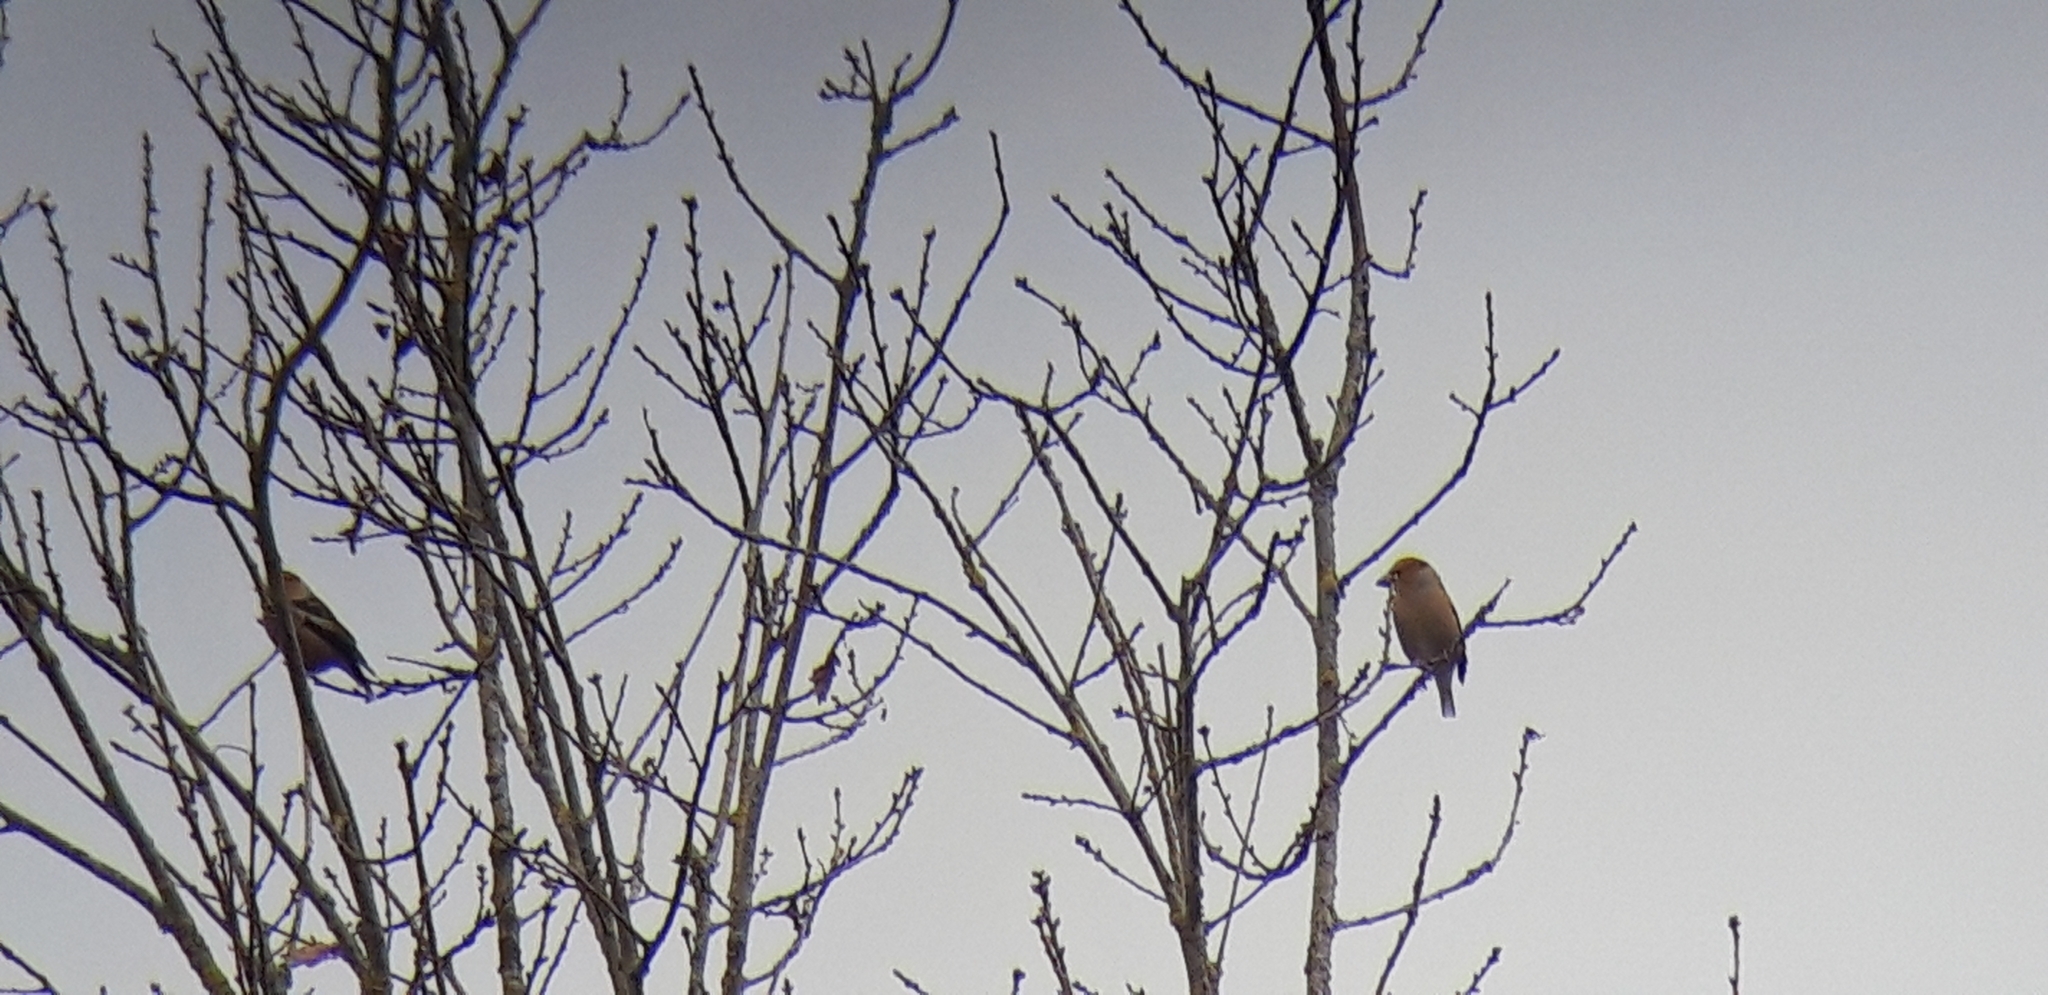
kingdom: Animalia
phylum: Chordata
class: Aves
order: Passeriformes
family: Fringillidae
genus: Coccothraustes
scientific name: Coccothraustes coccothraustes
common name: Hawfinch
